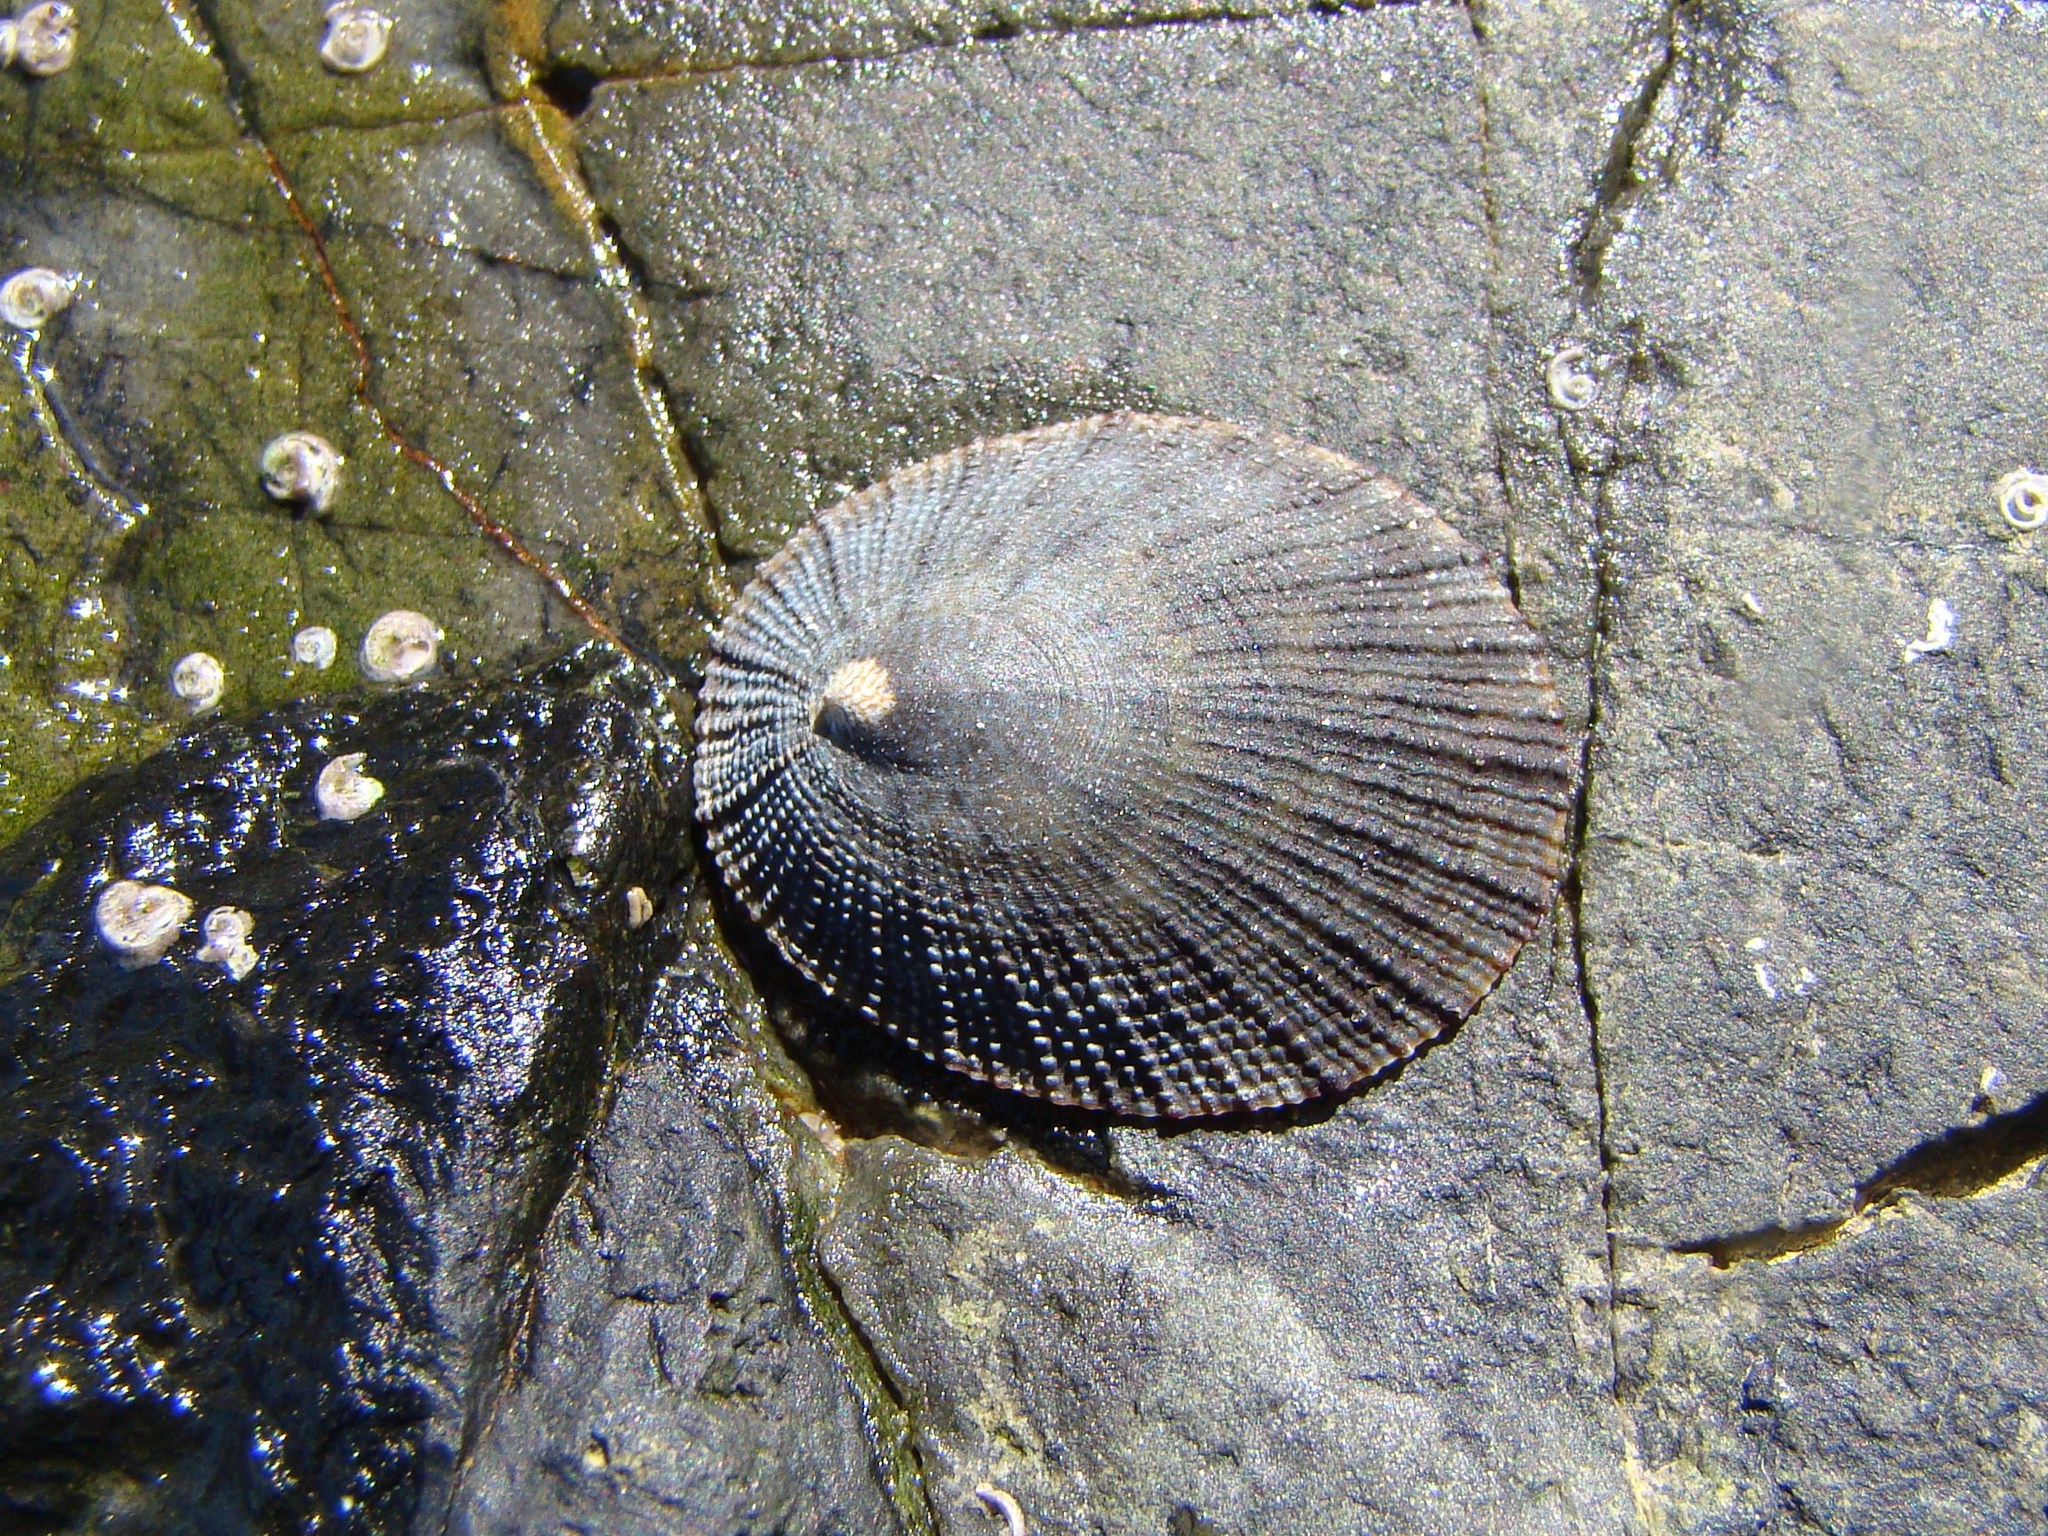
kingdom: Animalia
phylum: Mollusca
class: Gastropoda
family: Nacellidae
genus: Cellana
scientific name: Cellana radians
